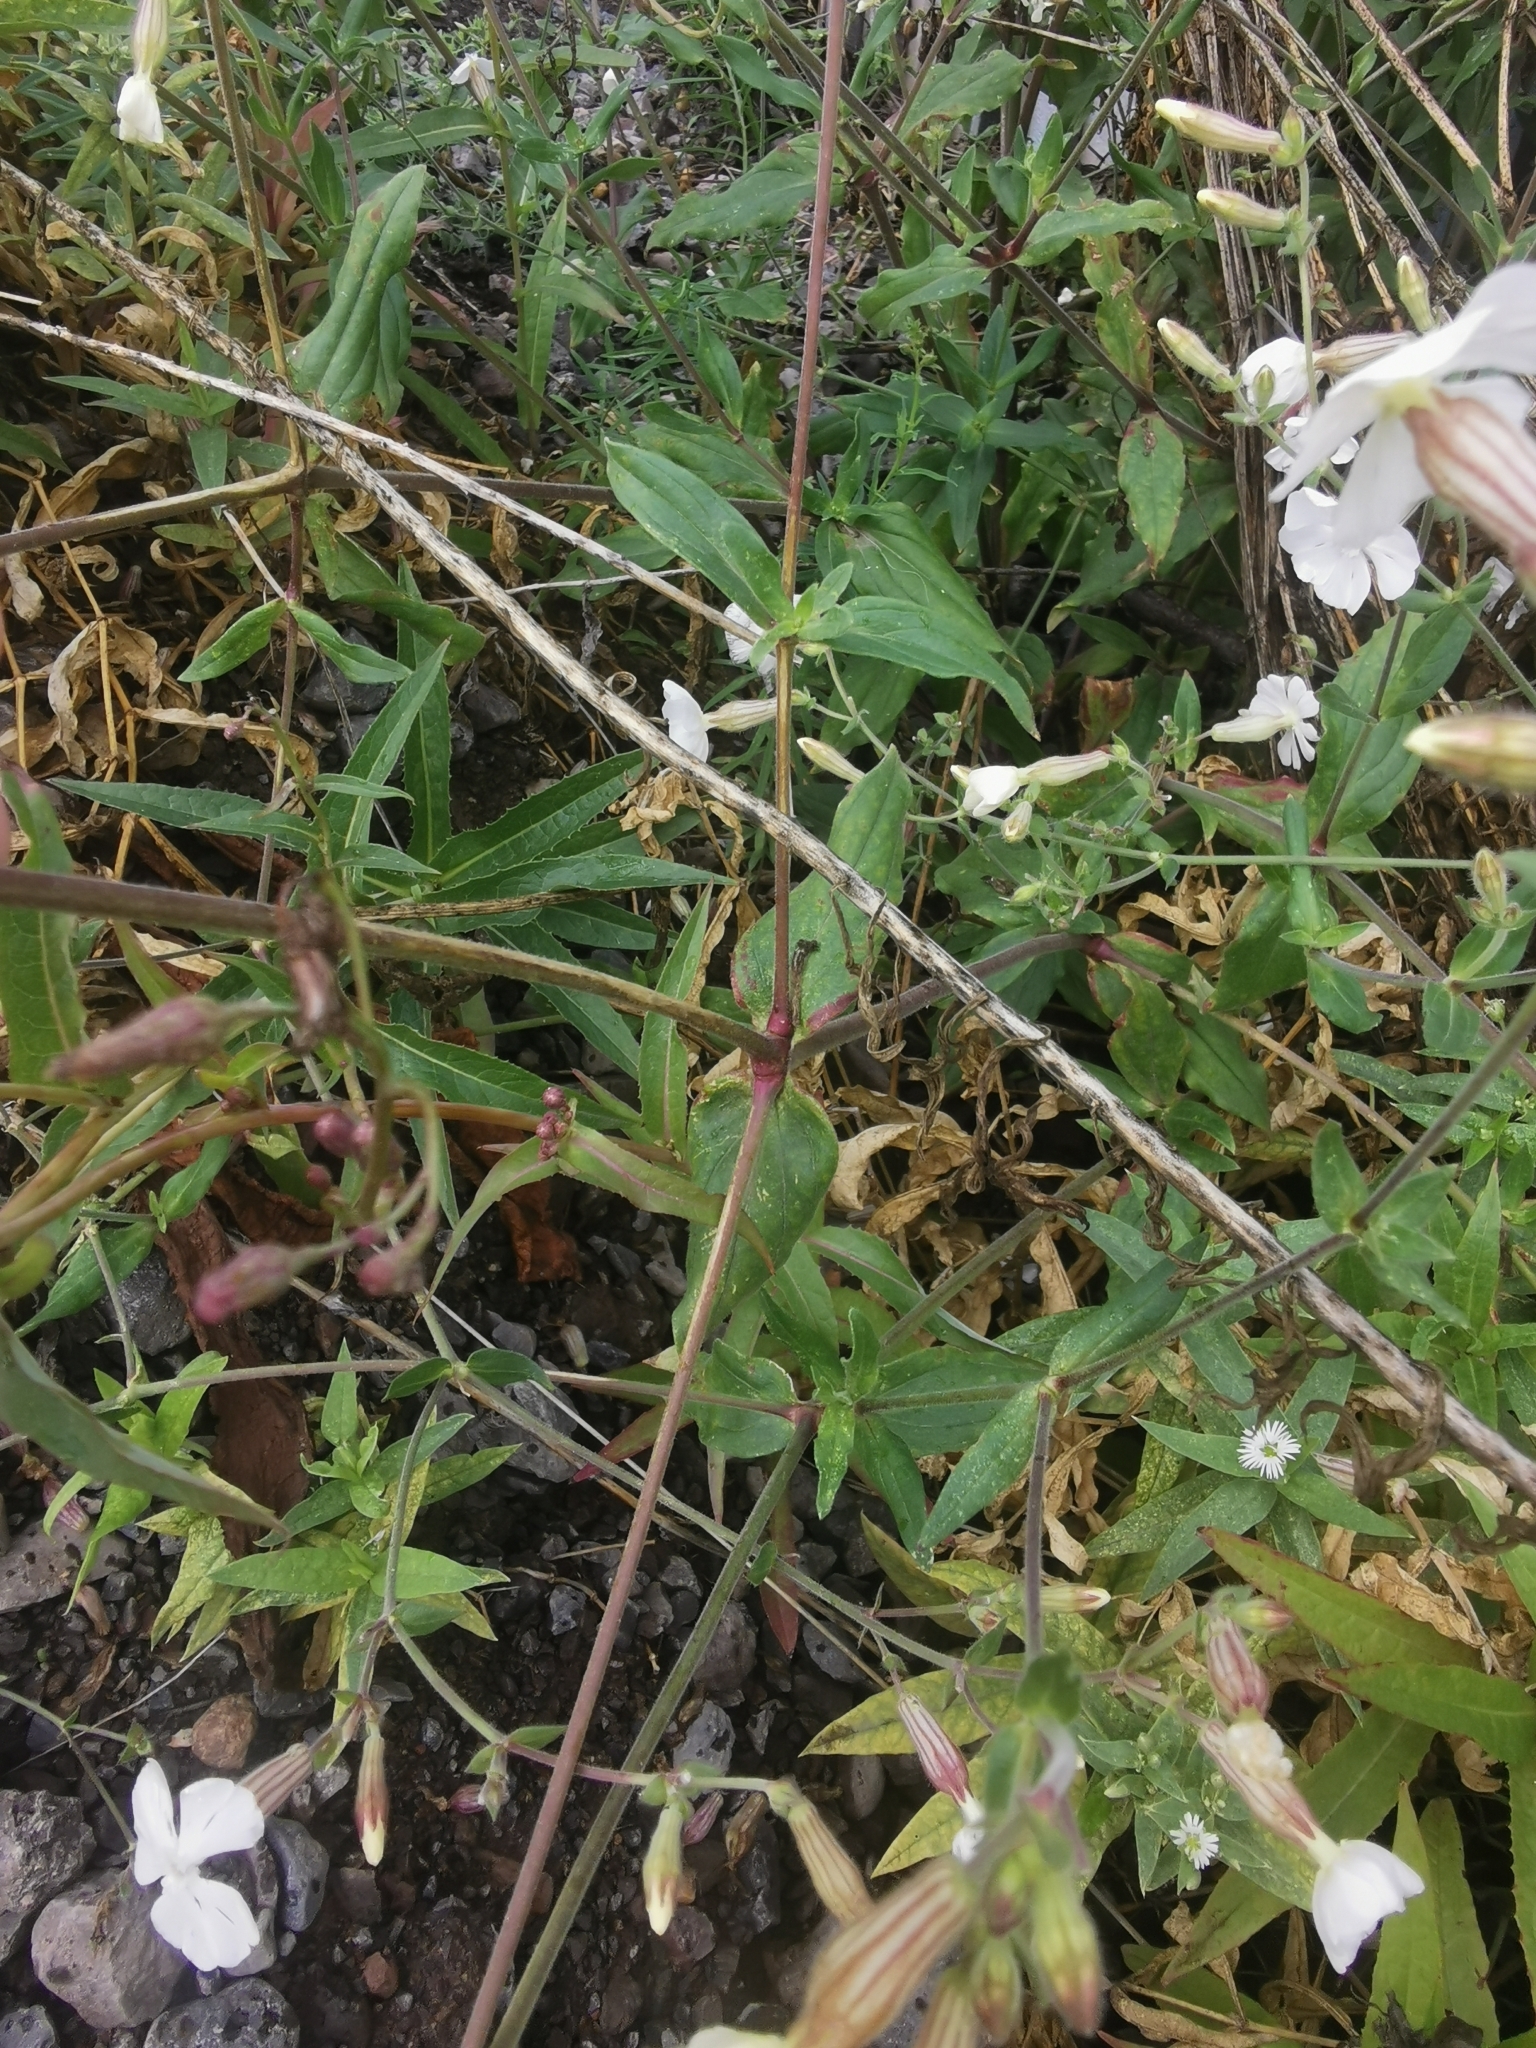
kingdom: Plantae
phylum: Tracheophyta
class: Magnoliopsida
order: Caryophyllales
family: Caryophyllaceae
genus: Silene
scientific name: Silene latifolia
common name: White campion
